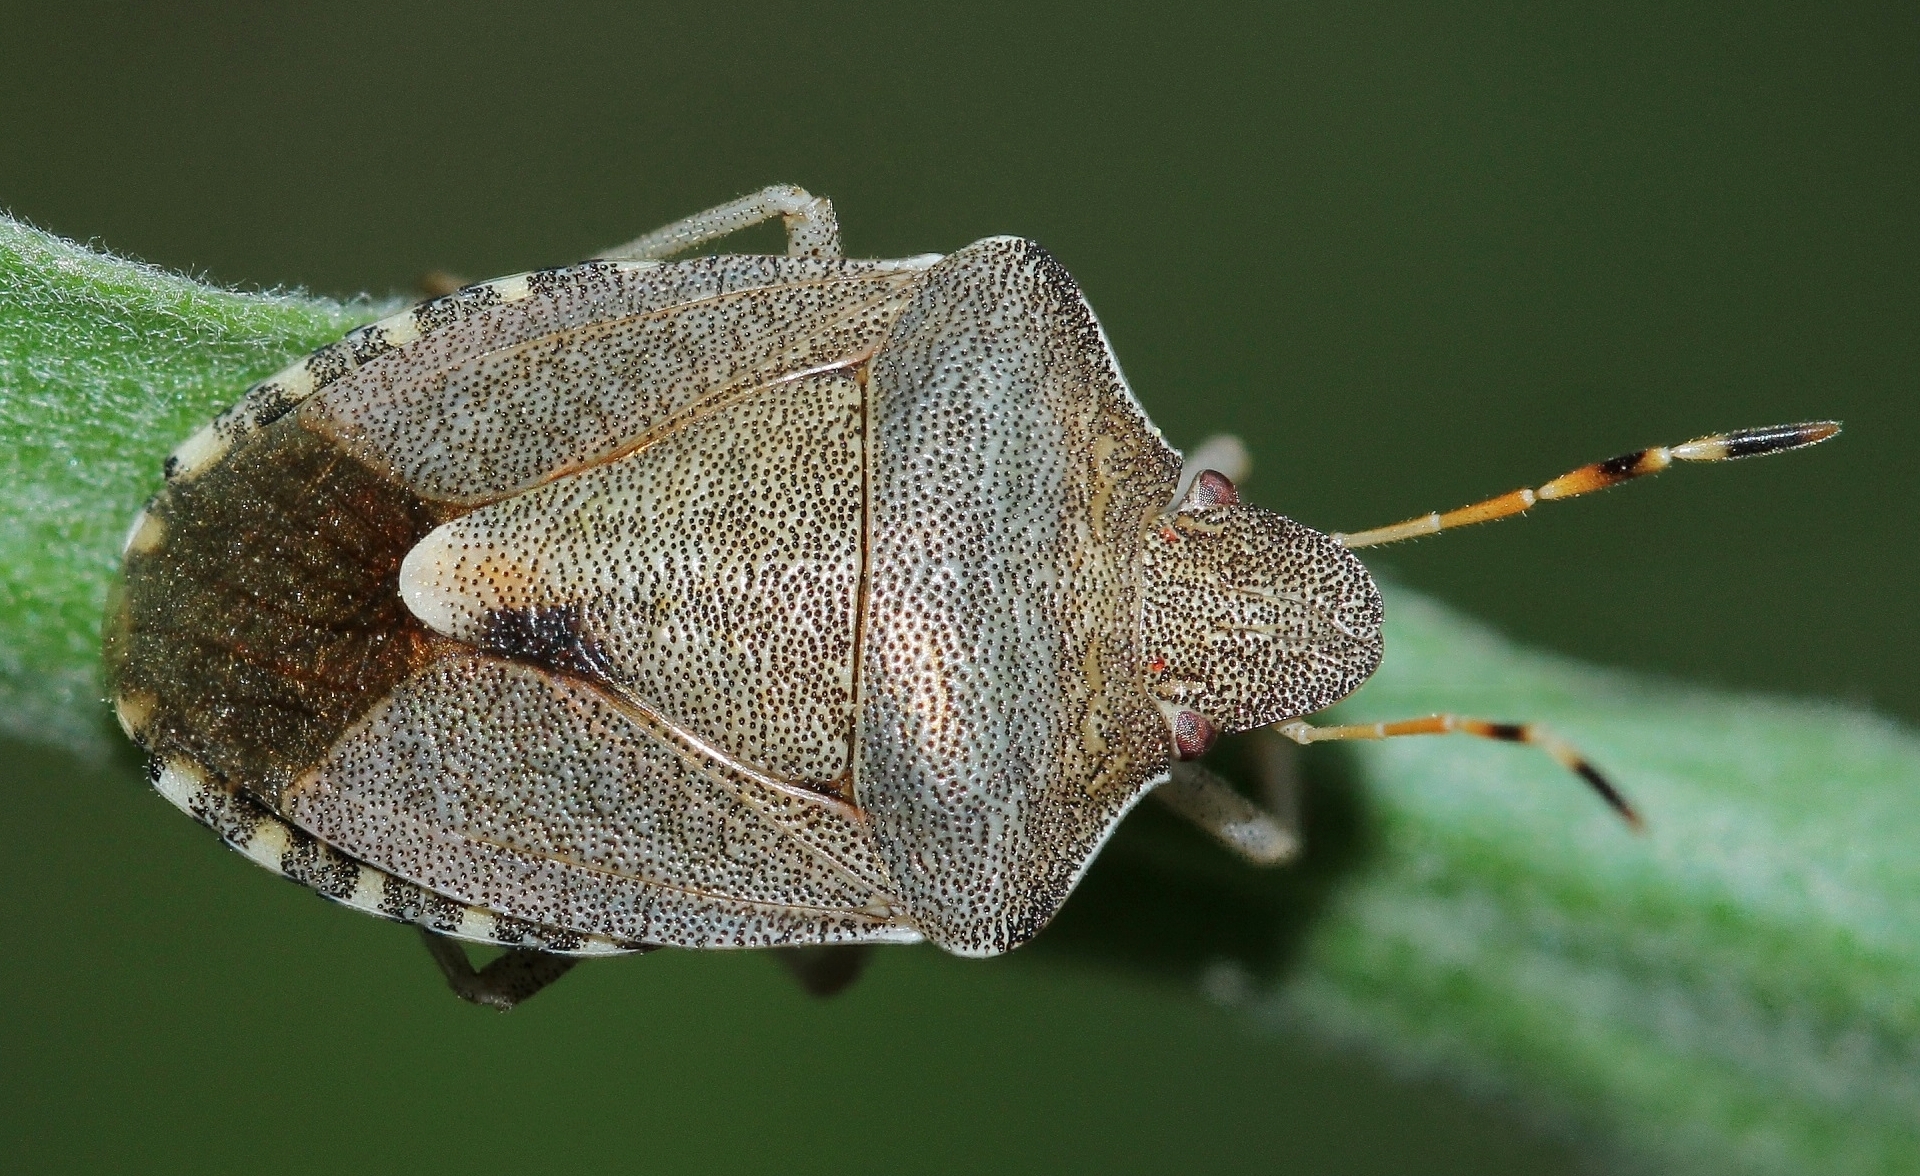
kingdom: Animalia
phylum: Arthropoda
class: Insecta
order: Hemiptera
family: Pentatomidae
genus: Holcostethus
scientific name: Holcostethus strictus
